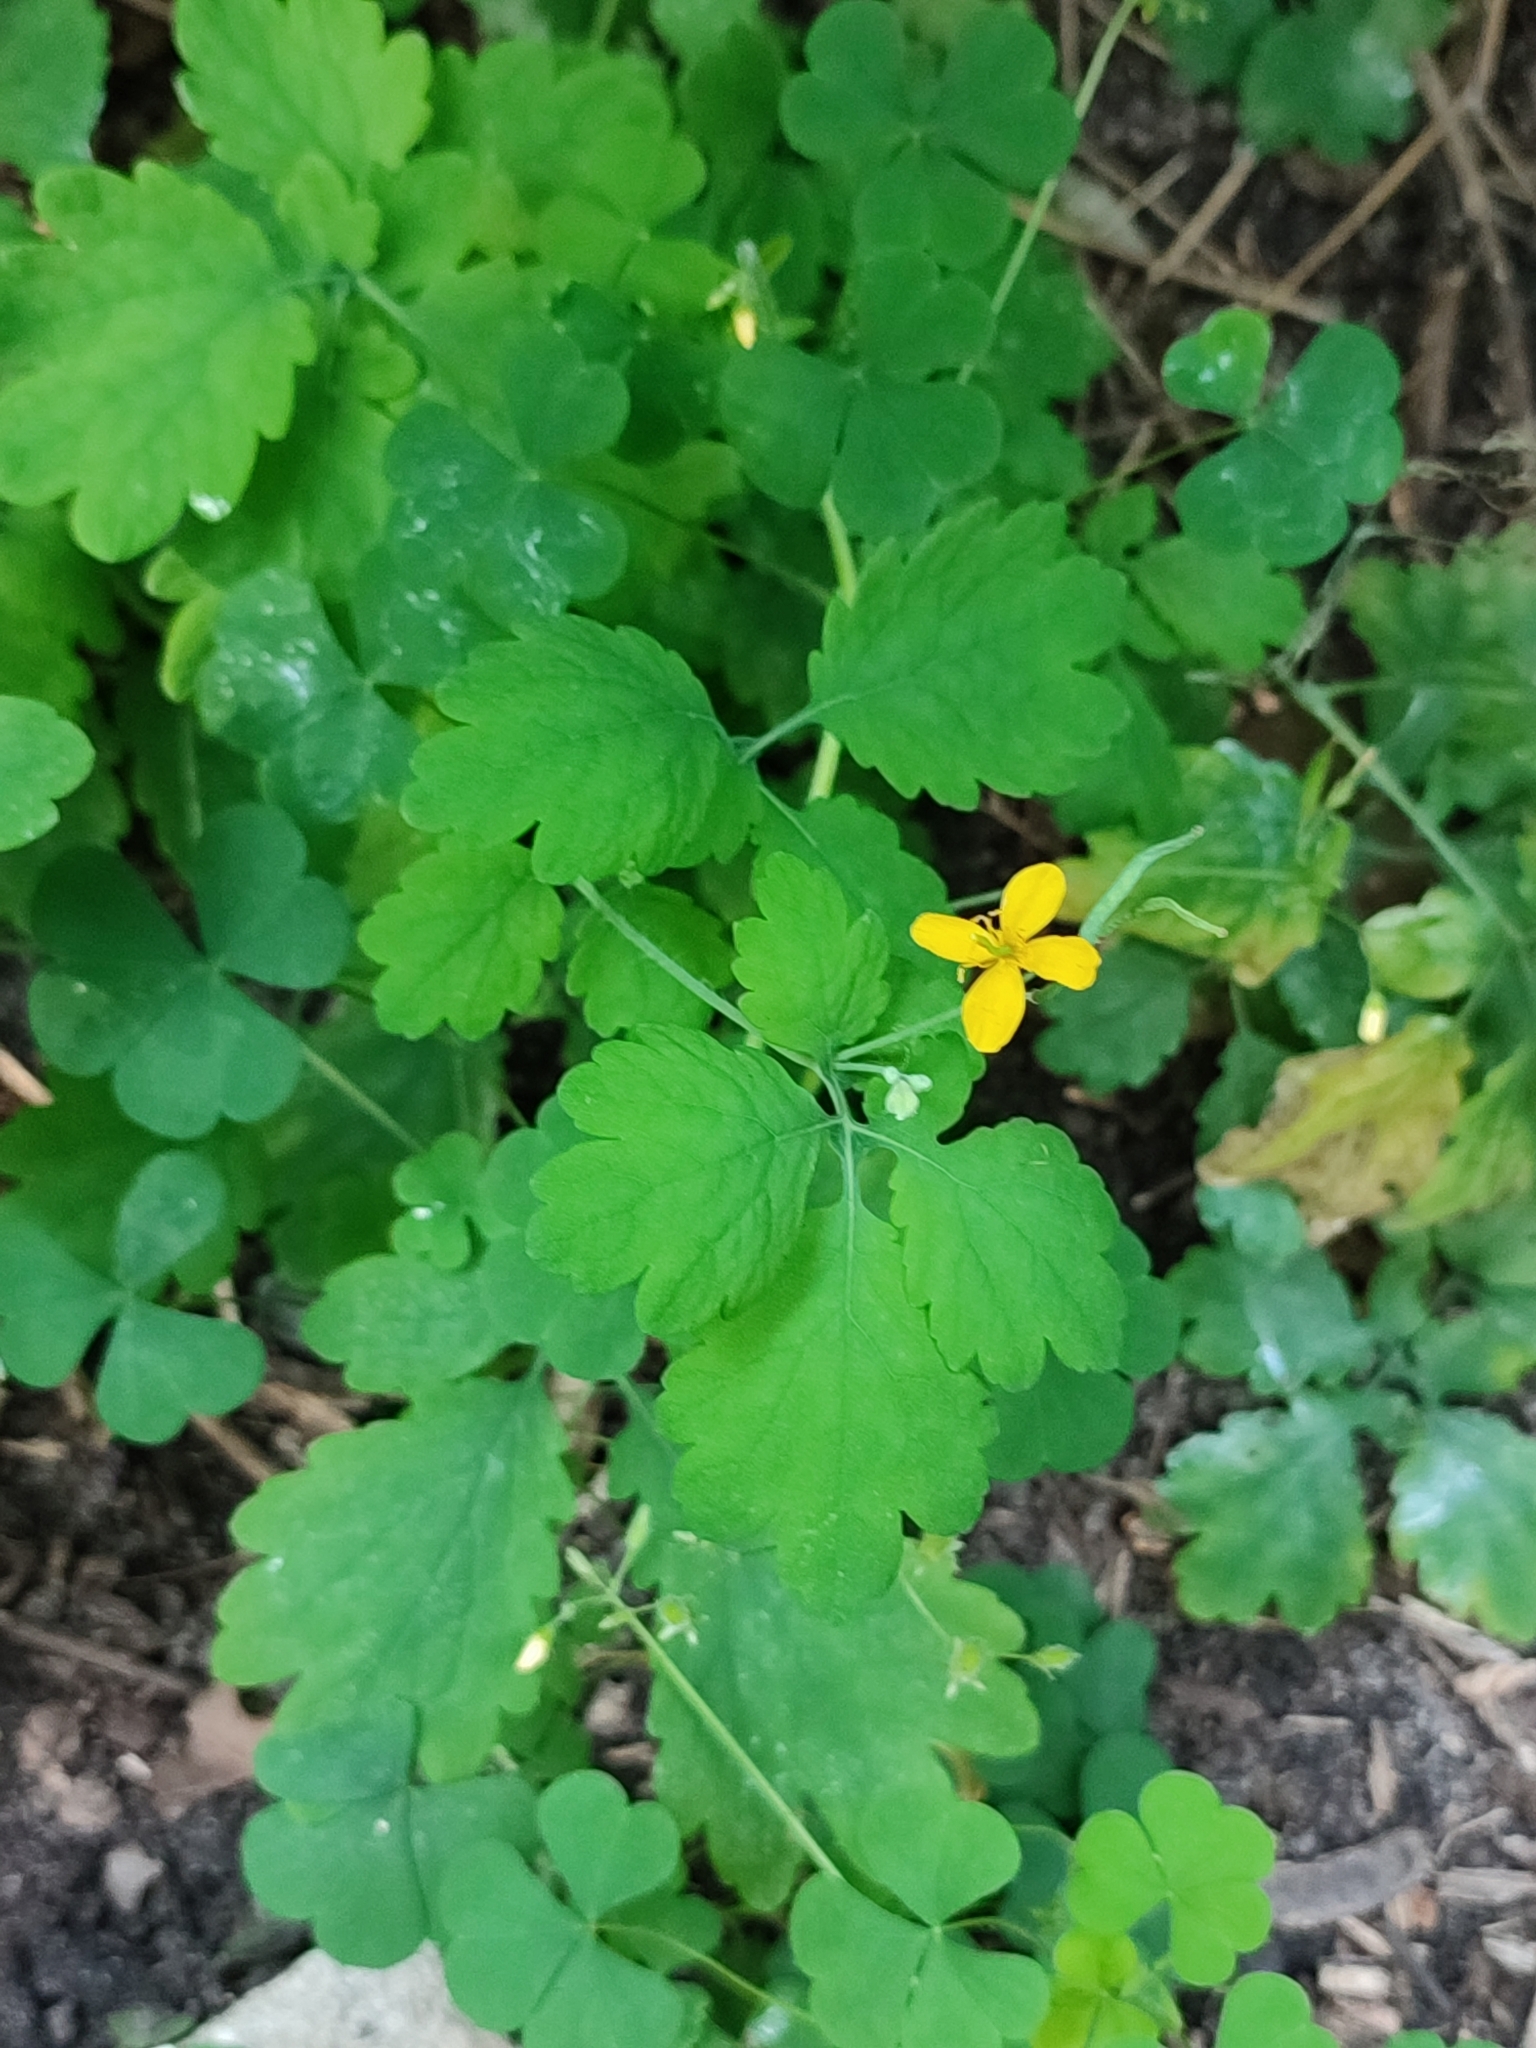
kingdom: Plantae
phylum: Tracheophyta
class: Magnoliopsida
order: Ranunculales
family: Papaveraceae
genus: Chelidonium
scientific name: Chelidonium majus
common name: Greater celandine
